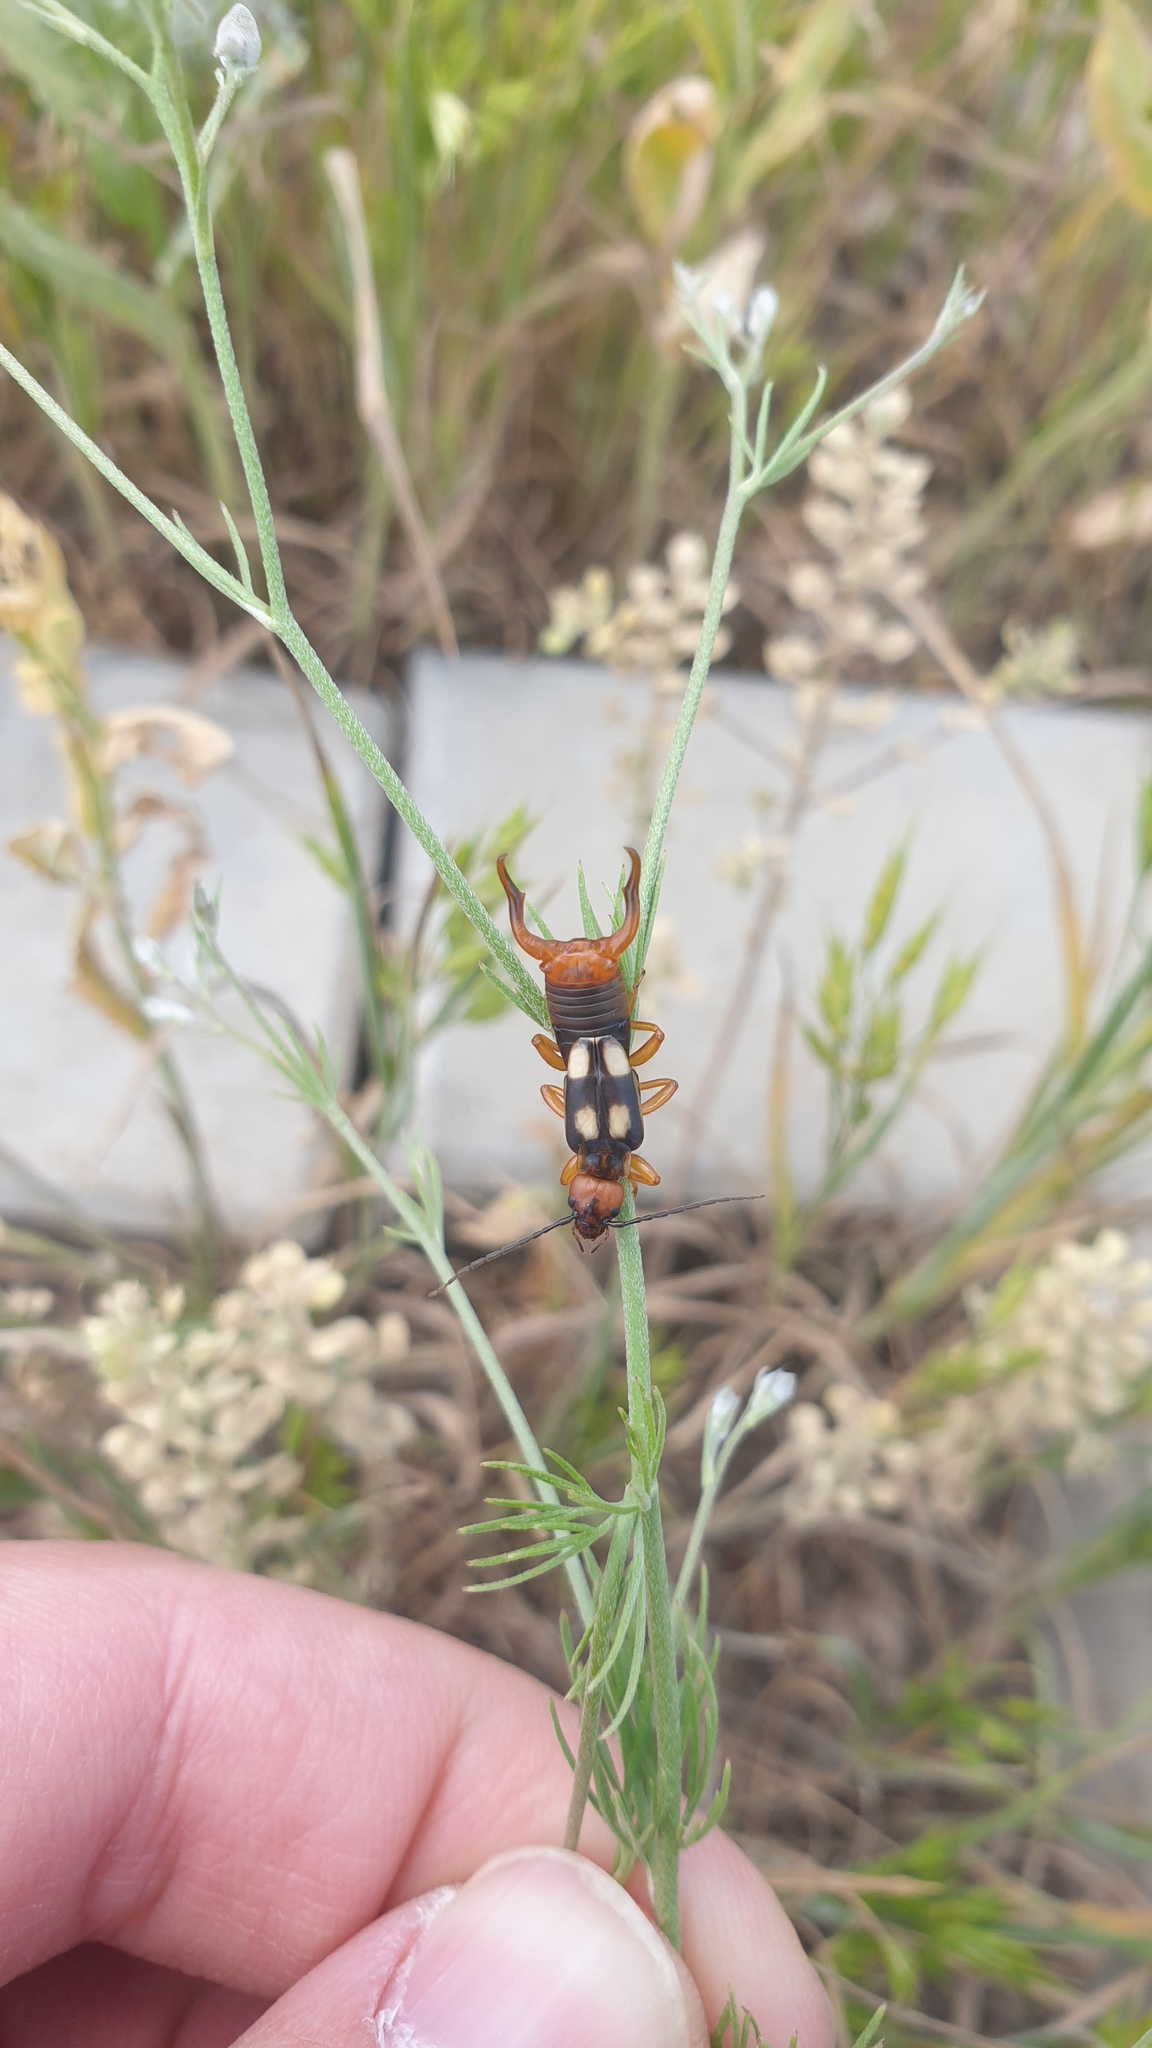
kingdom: Animalia
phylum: Arthropoda
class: Insecta
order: Dermaptera
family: Forficulidae
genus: Anechura
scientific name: Anechura bipunctata
